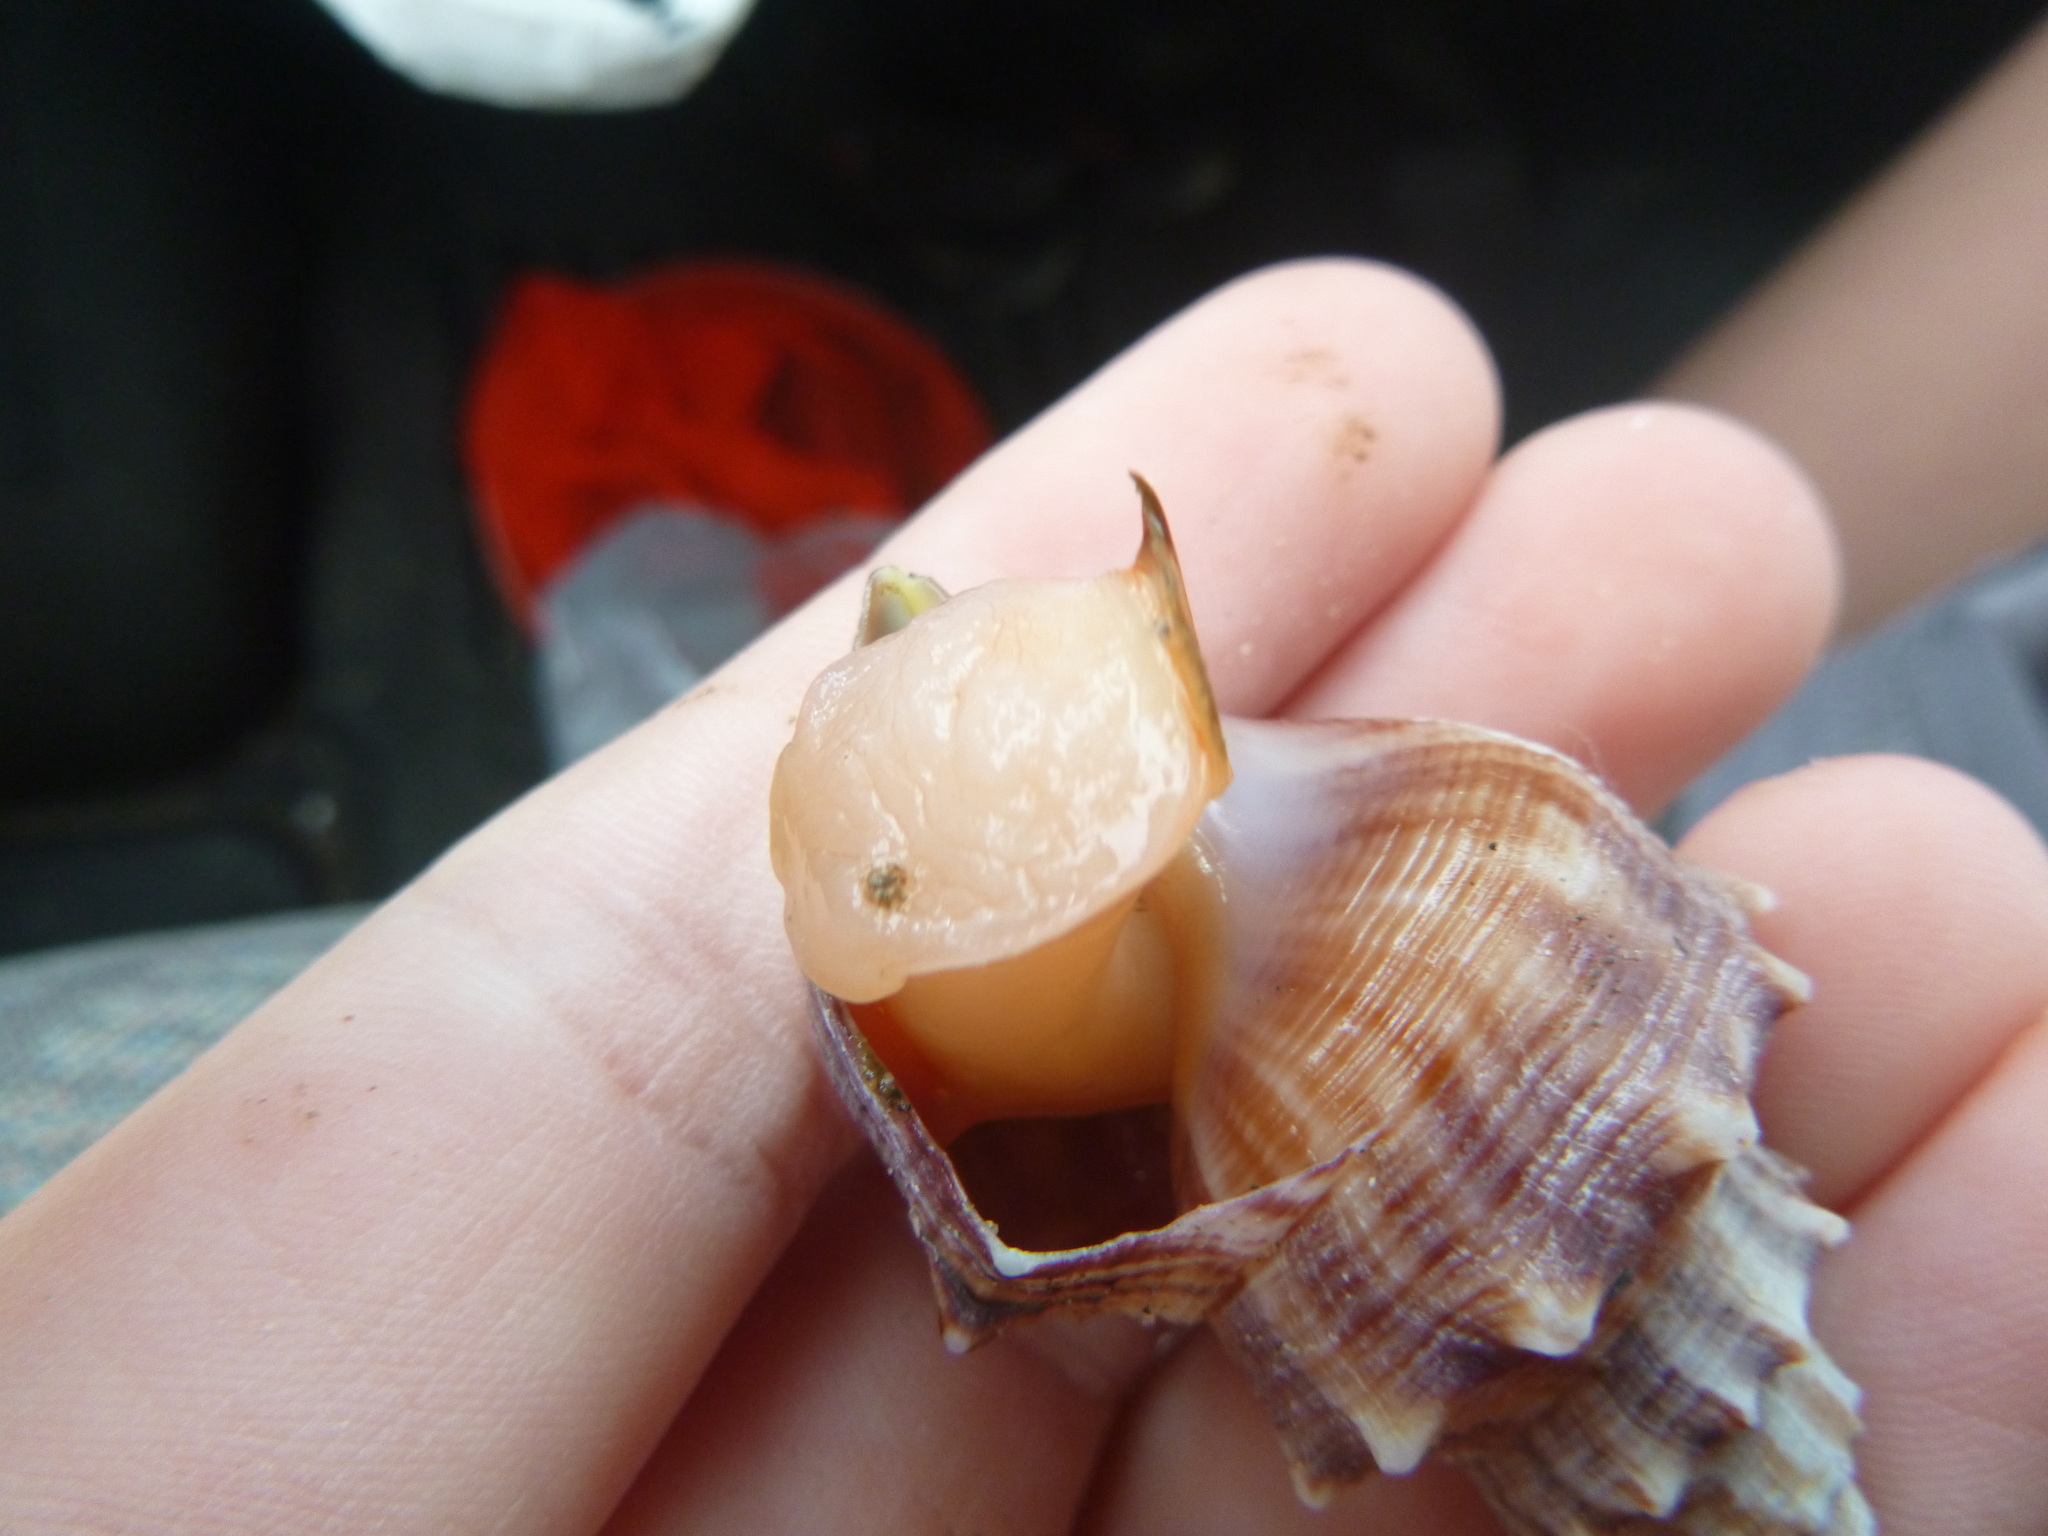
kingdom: Animalia
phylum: Mollusca
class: Gastropoda
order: Littorinimorpha
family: Struthiolariidae
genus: Struthiolaria
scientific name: Struthiolaria papulosa
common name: Large ostrich foot
